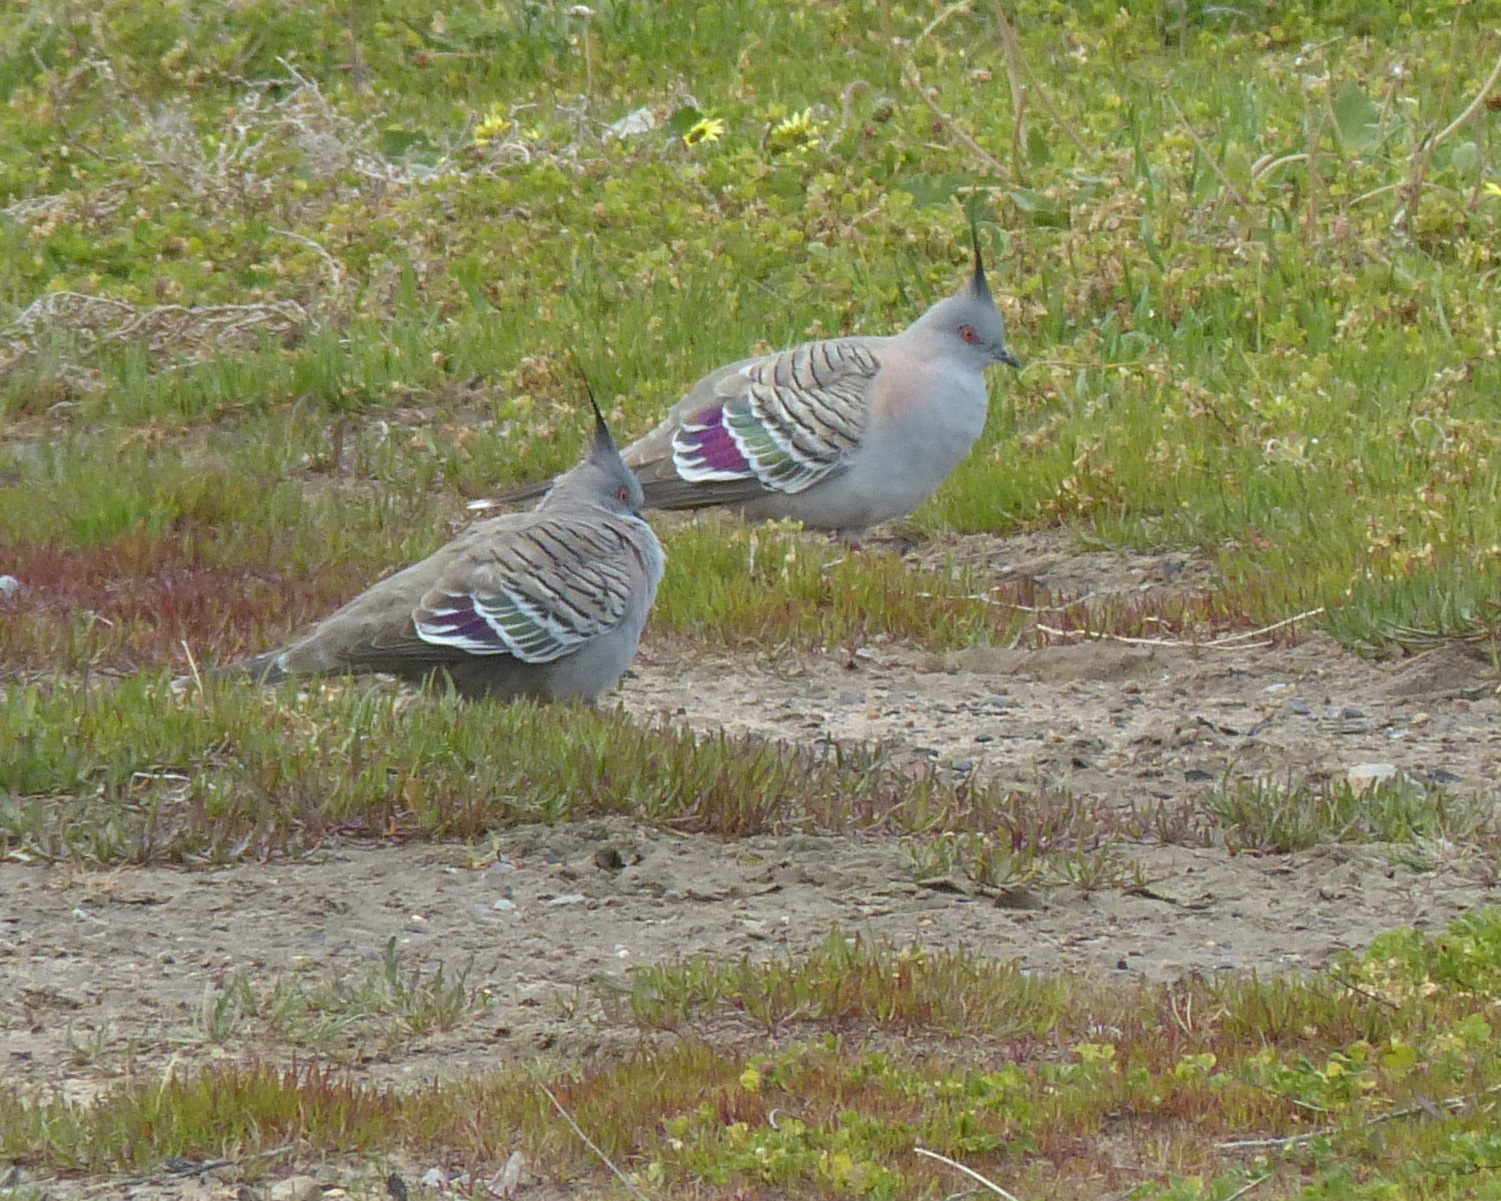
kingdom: Animalia
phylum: Chordata
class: Aves
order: Columbiformes
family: Columbidae
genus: Ocyphaps
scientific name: Ocyphaps lophotes
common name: Crested pigeon
